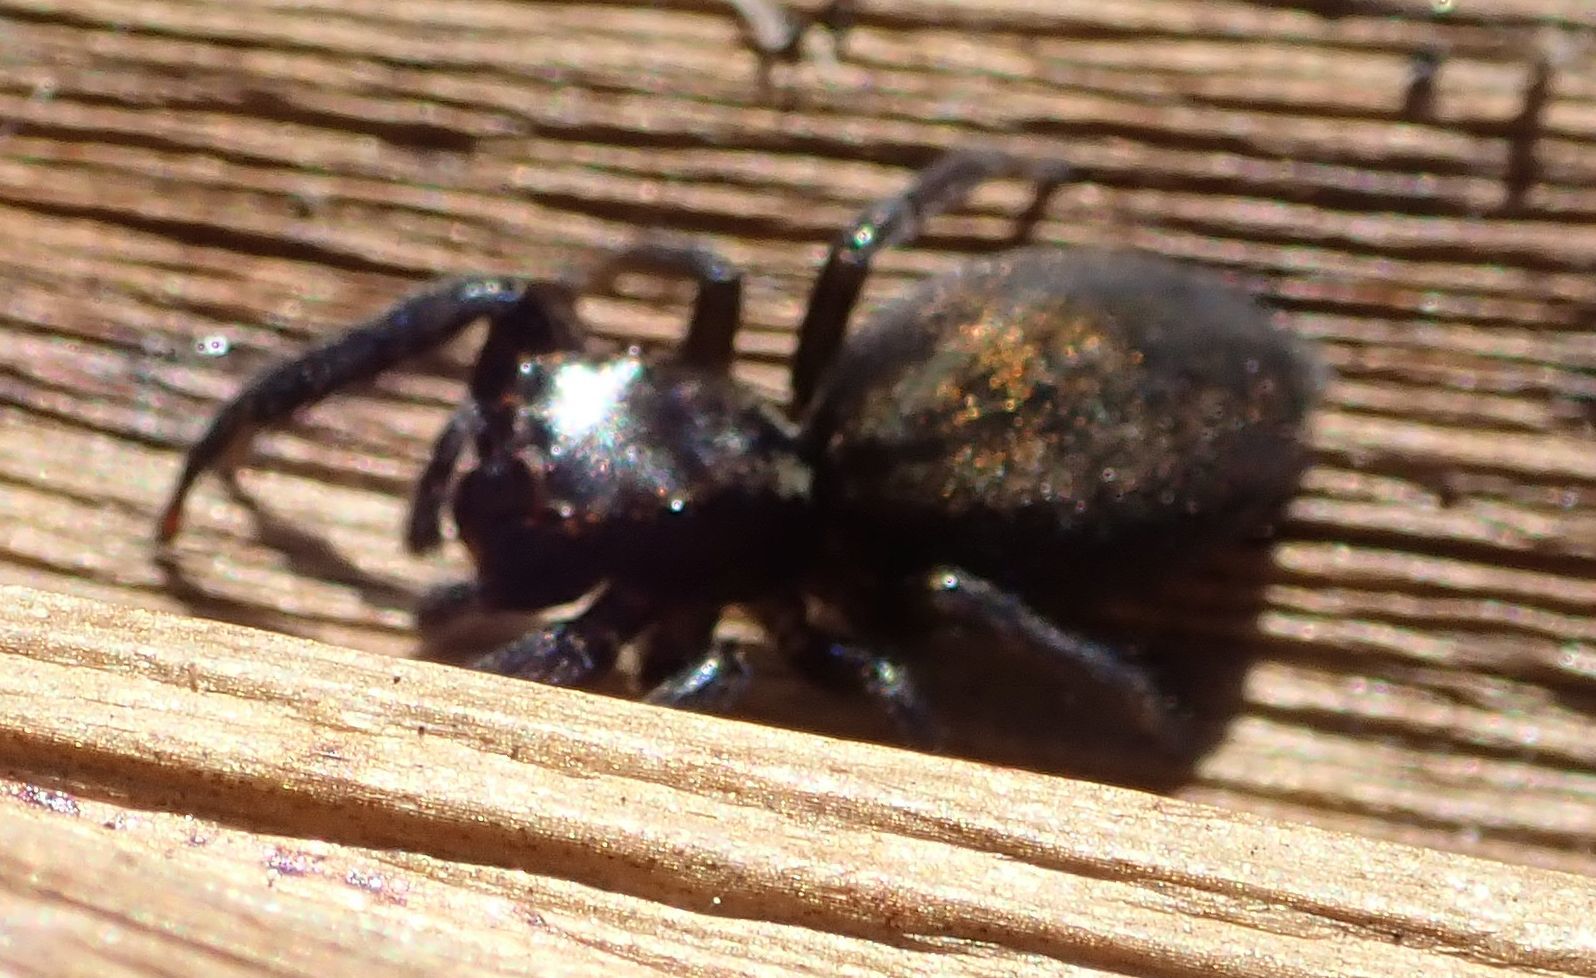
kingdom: Animalia
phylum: Arthropoda
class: Arachnida
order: Araneae
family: Salticidae
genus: Trite
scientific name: Trite auricoma
